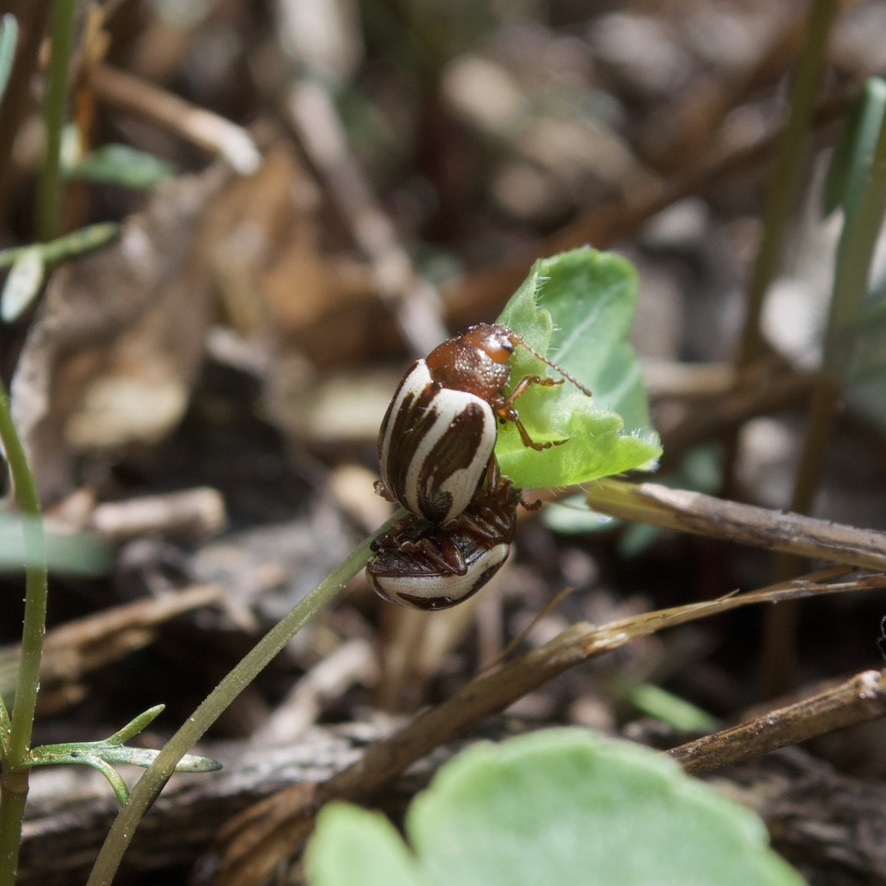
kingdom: Animalia
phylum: Arthropoda
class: Insecta
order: Coleoptera
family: Chrysomelidae
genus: Calligrapha
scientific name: Calligrapha bidenticola
